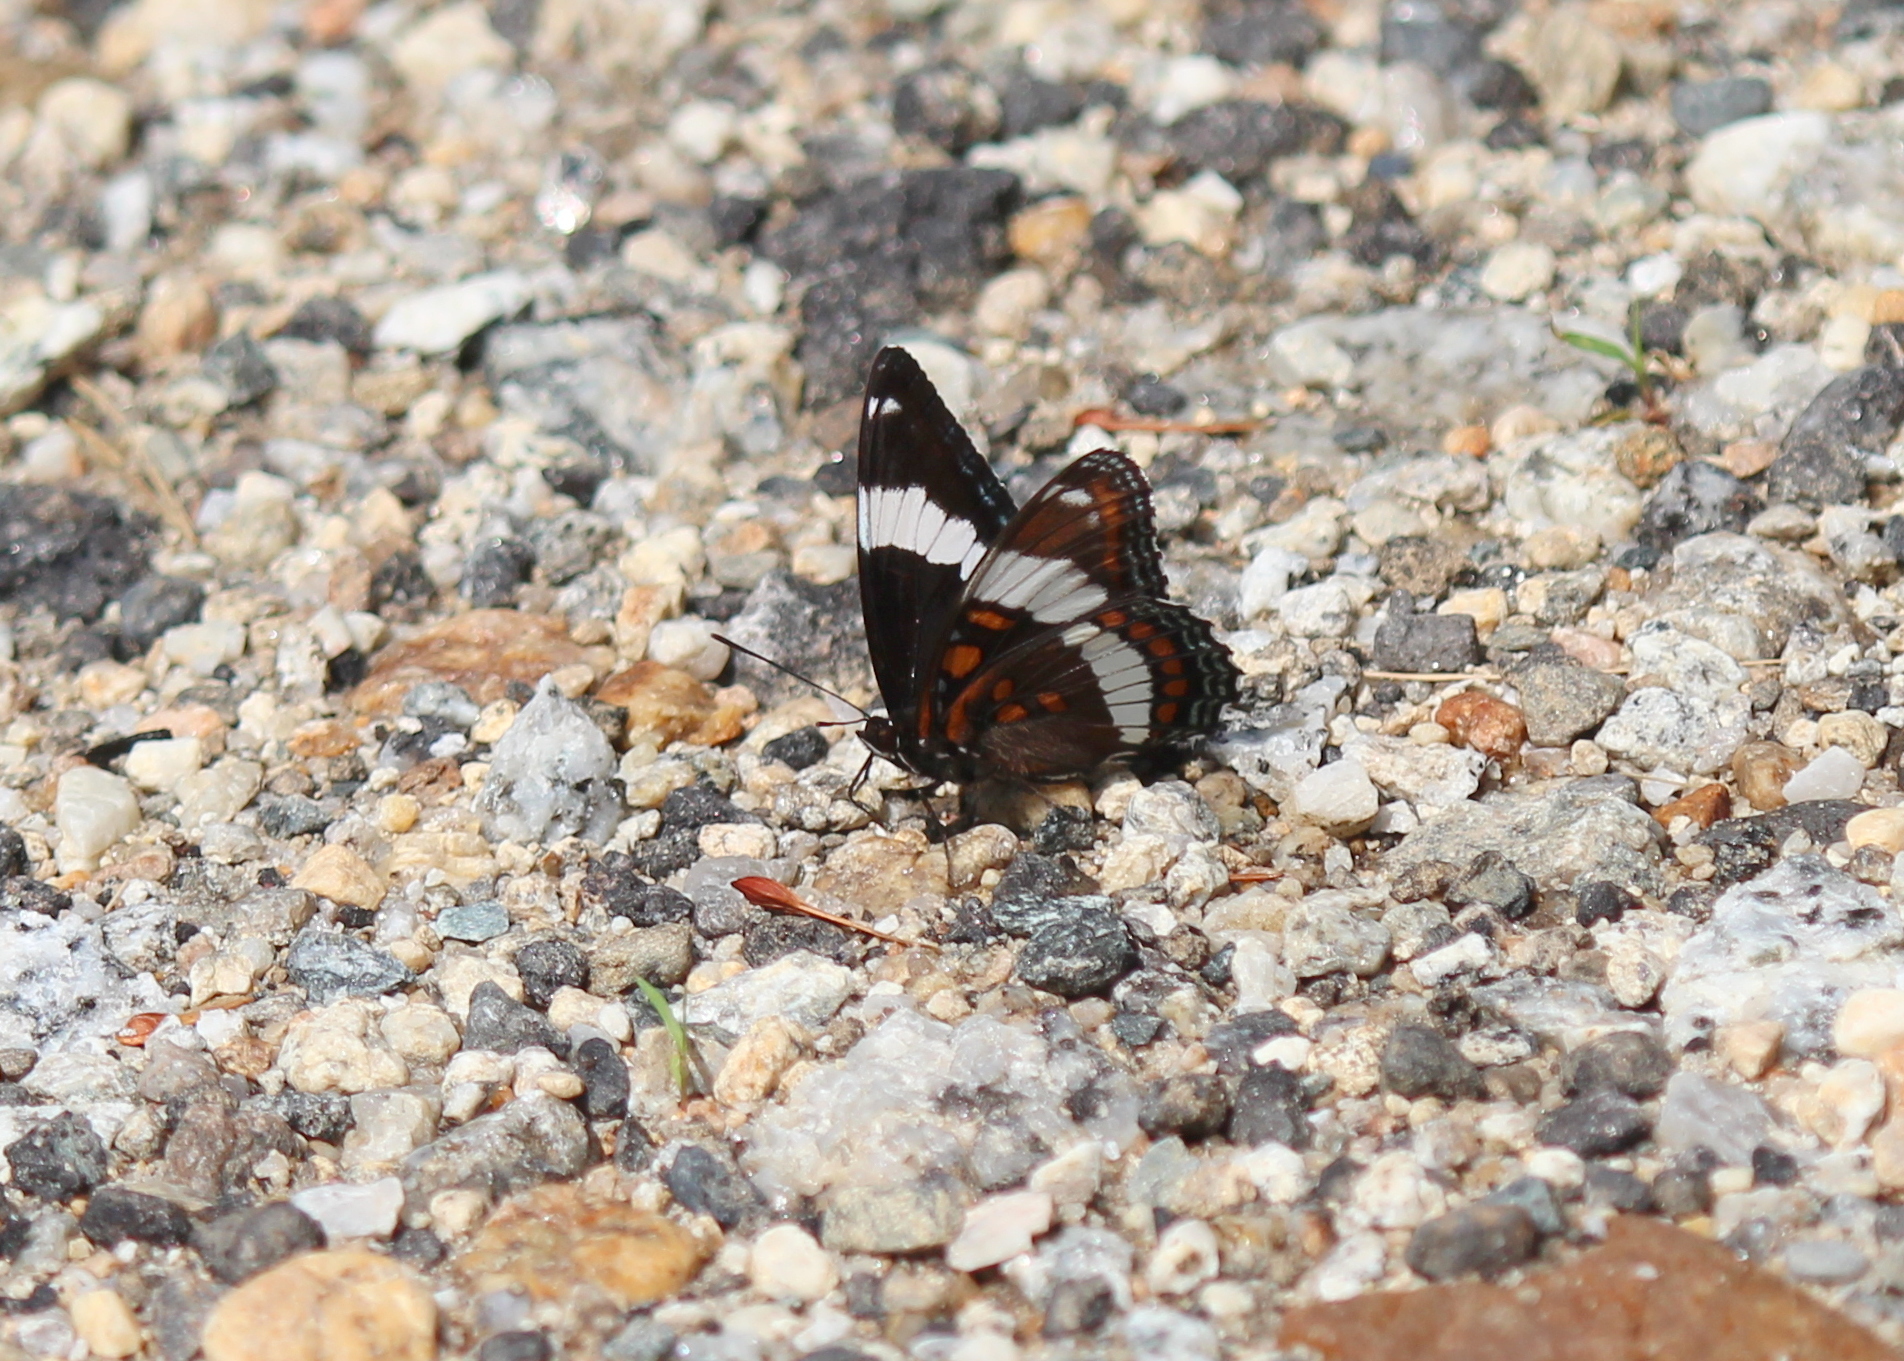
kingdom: Animalia
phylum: Arthropoda
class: Insecta
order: Lepidoptera
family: Nymphalidae
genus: Limenitis
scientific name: Limenitis arthemis
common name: Red-spotted admiral
